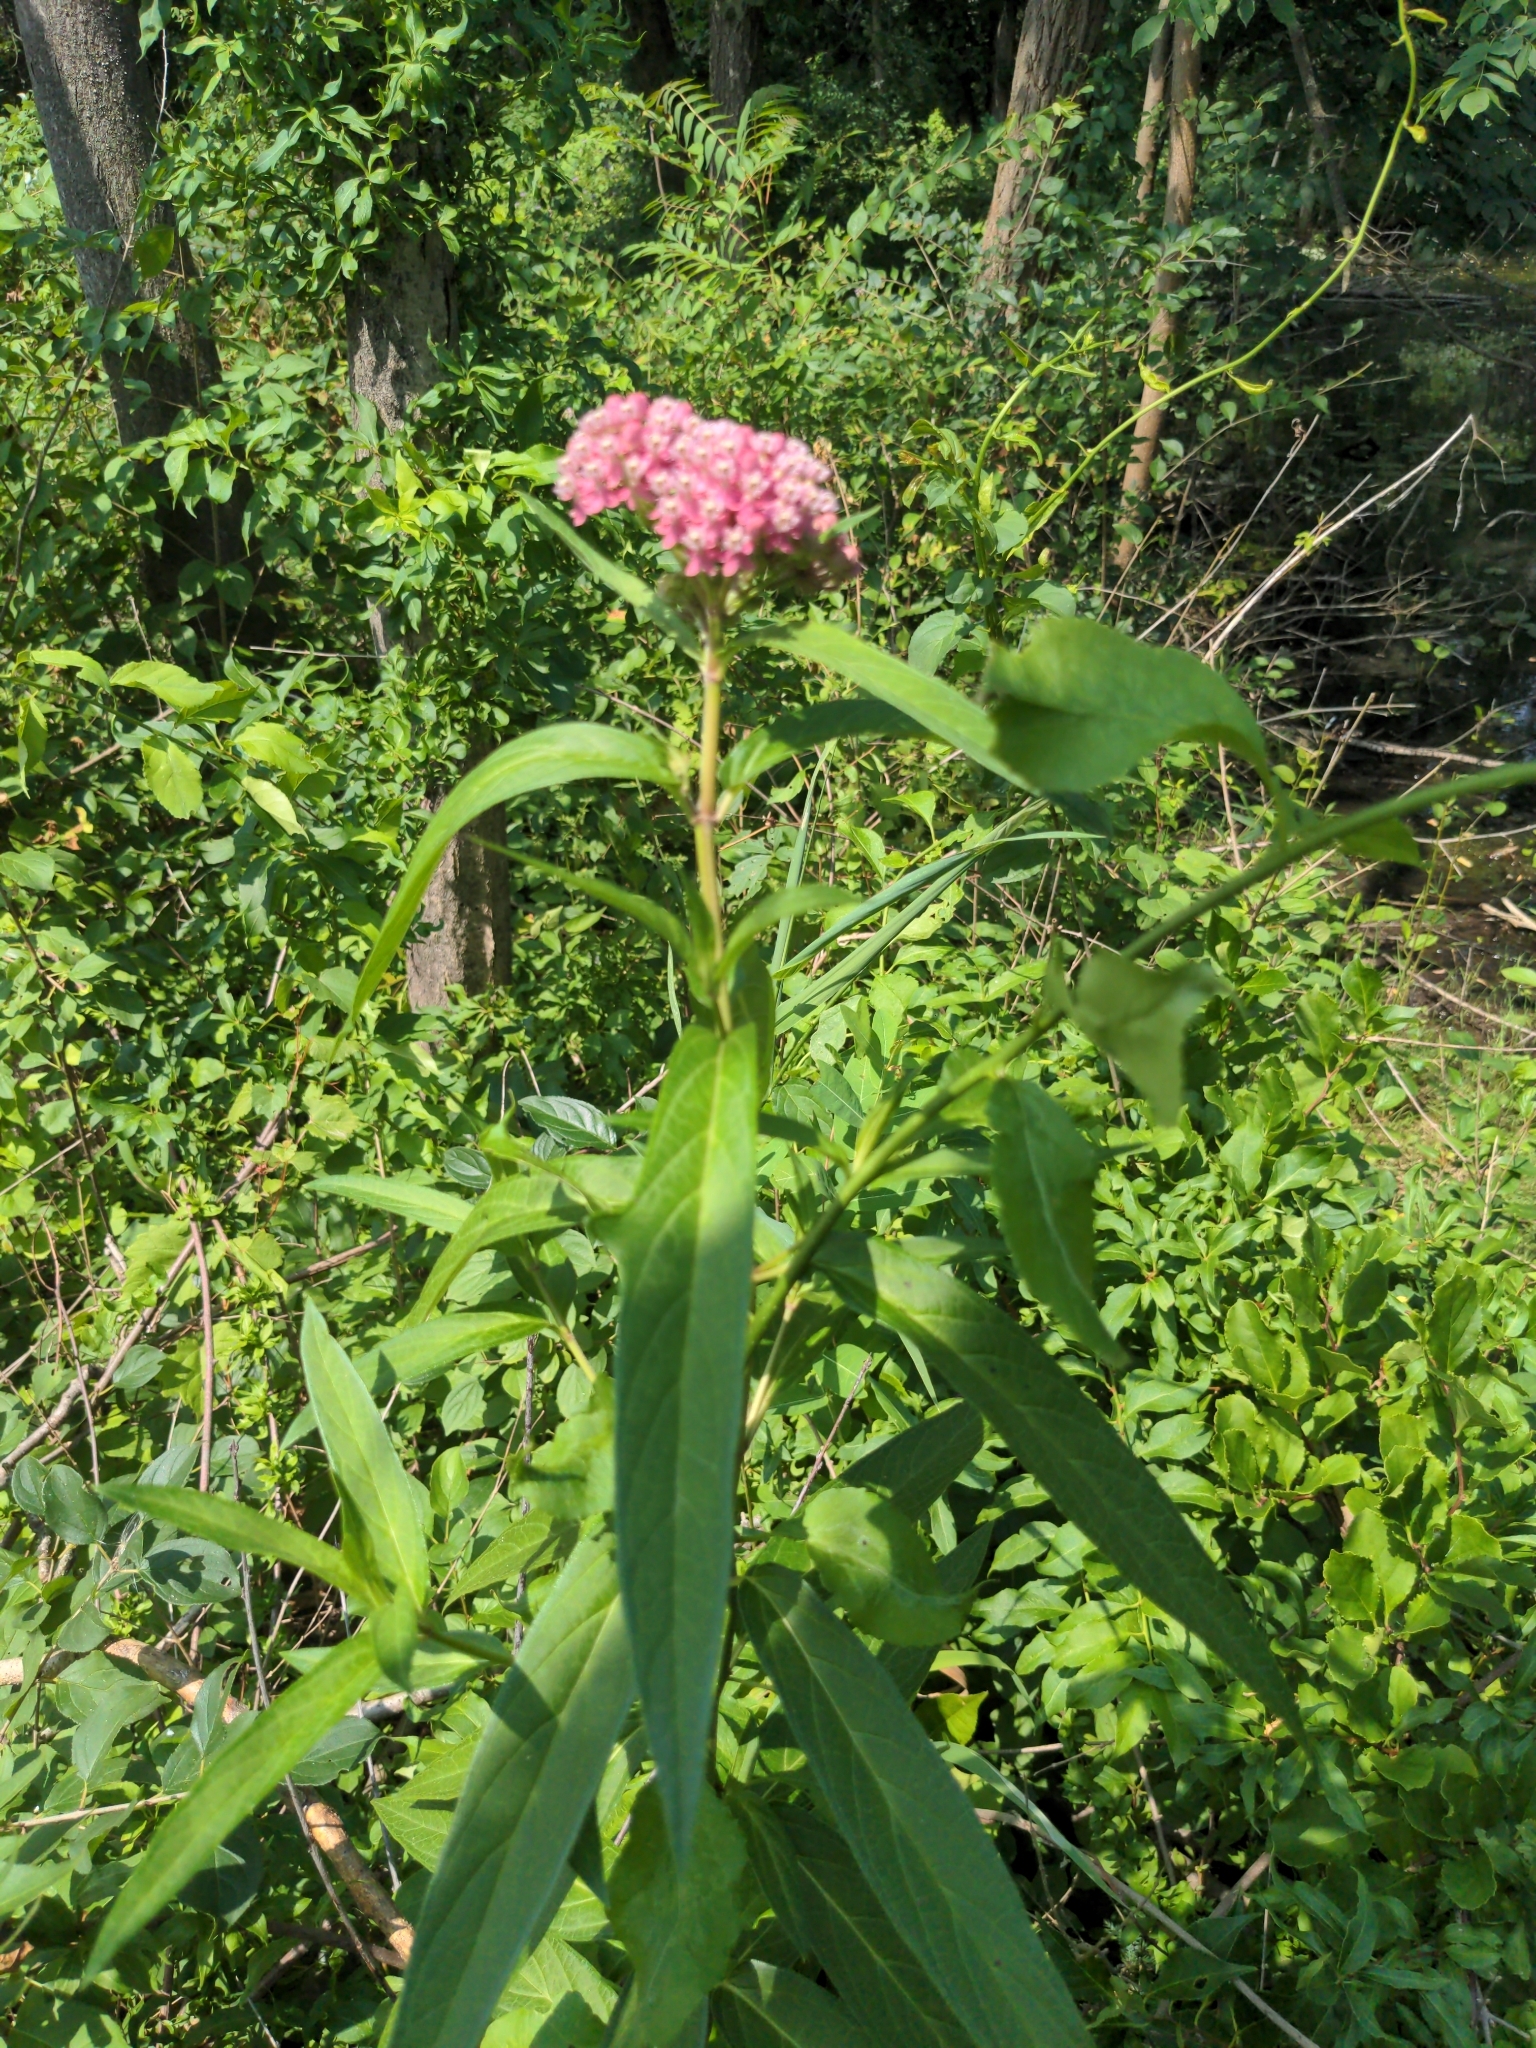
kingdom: Plantae
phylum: Tracheophyta
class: Magnoliopsida
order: Gentianales
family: Apocynaceae
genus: Asclepias
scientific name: Asclepias incarnata
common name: Swamp milkweed
